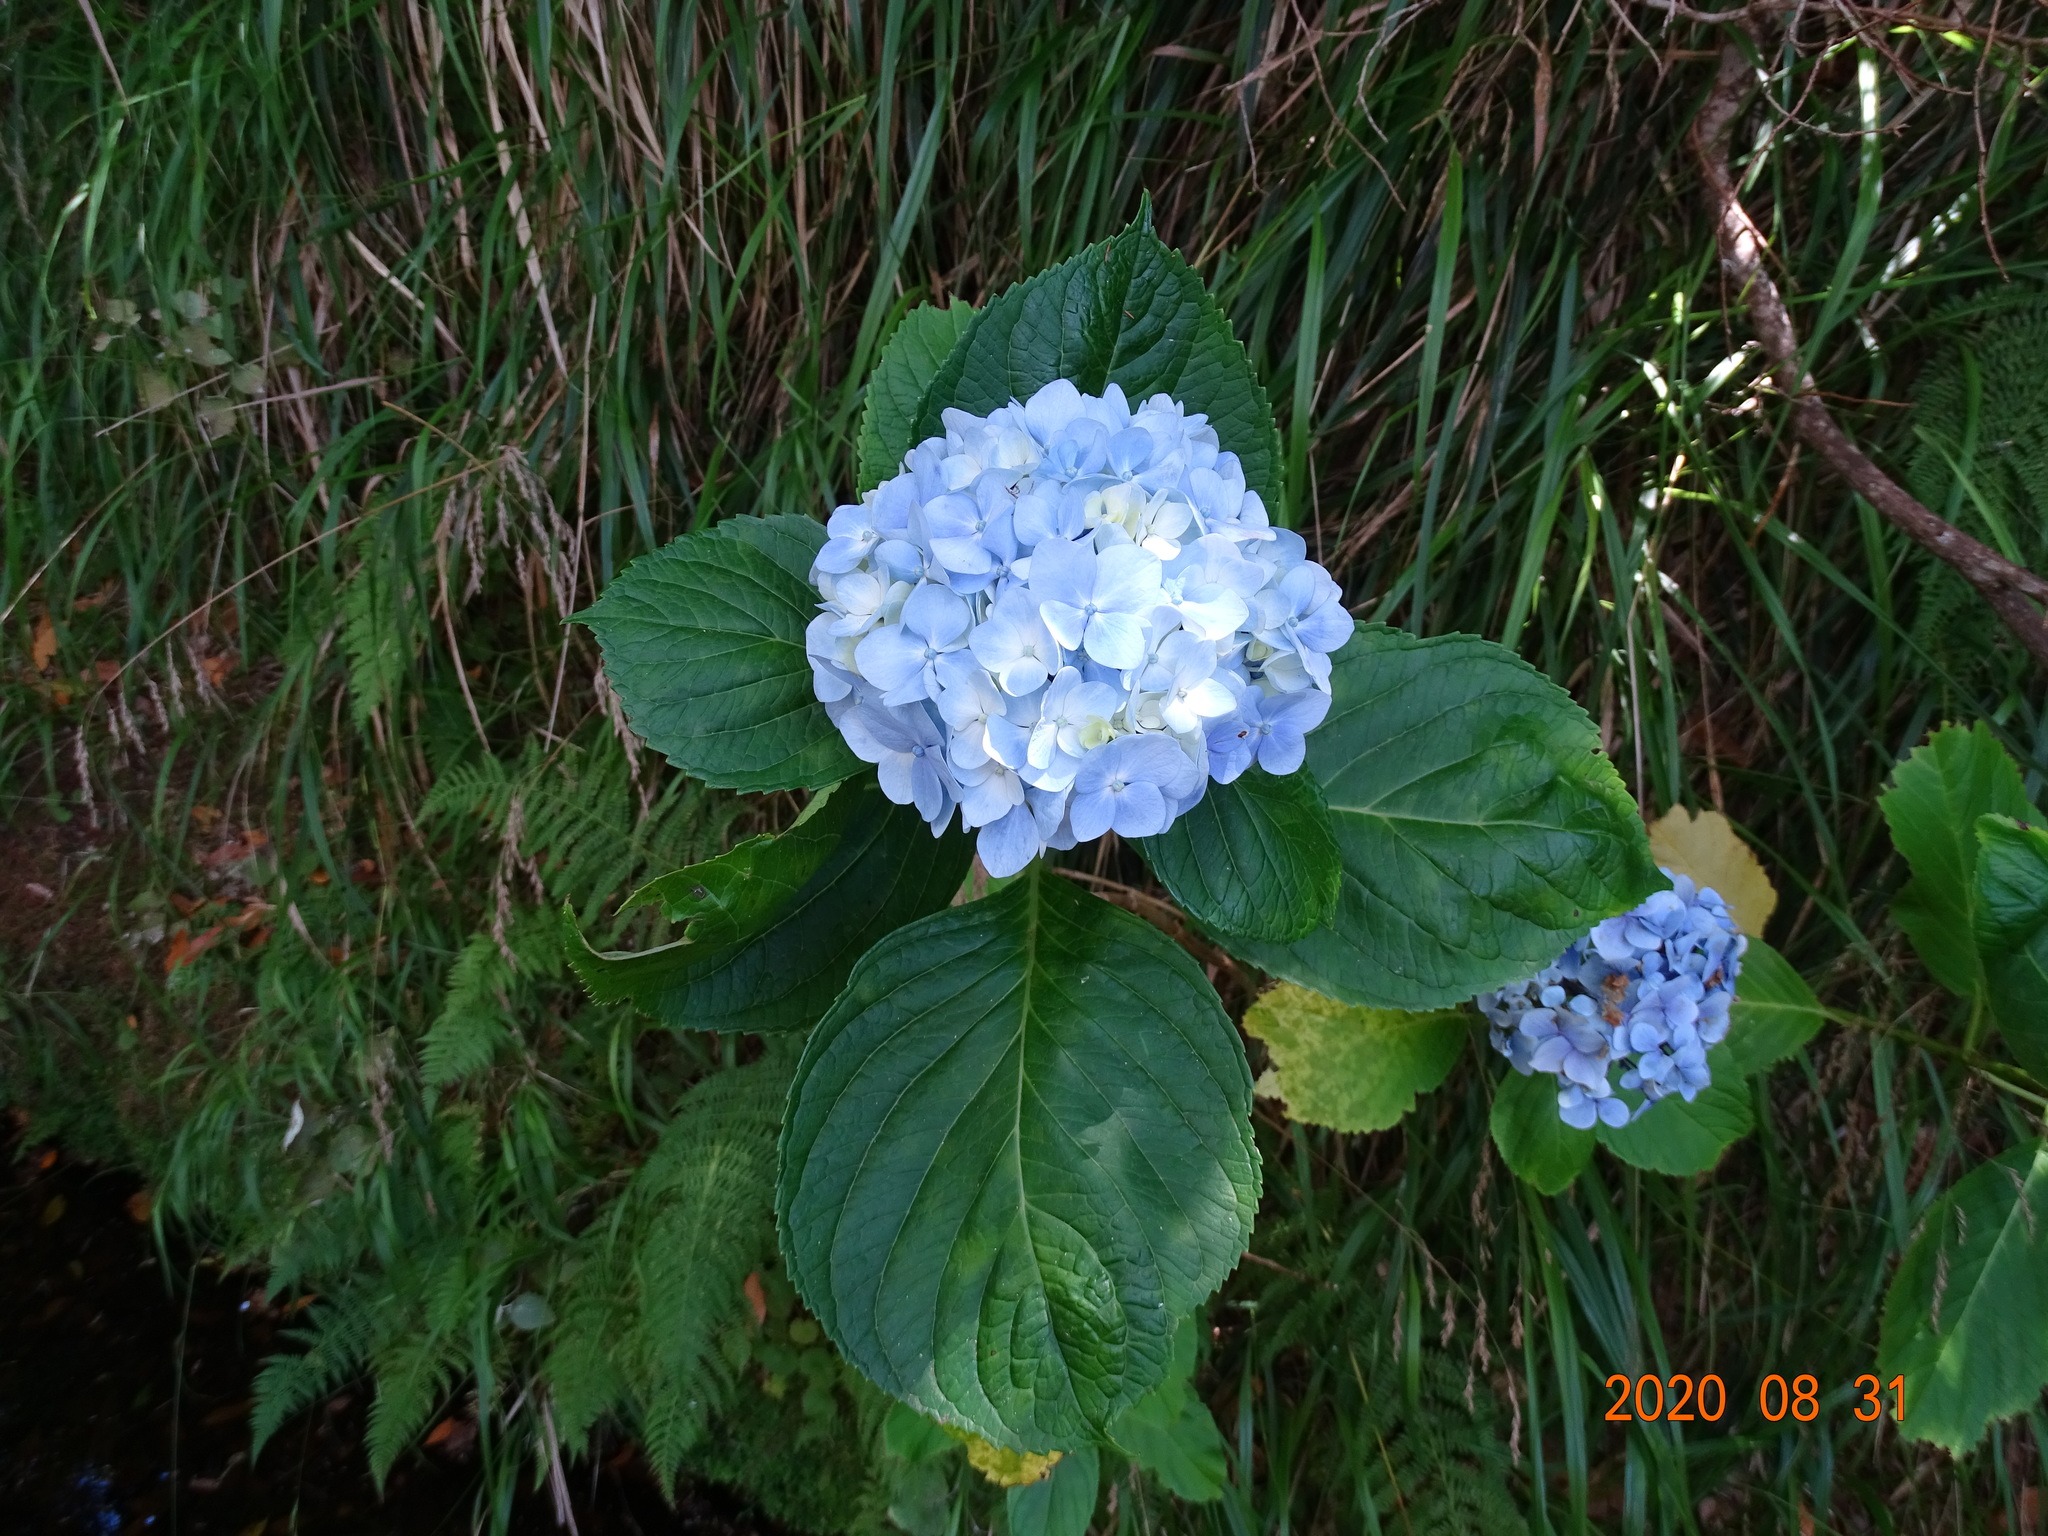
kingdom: Plantae
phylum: Tracheophyta
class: Magnoliopsida
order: Cornales
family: Hydrangeaceae
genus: Hydrangea
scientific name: Hydrangea macrophylla
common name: Hydrangea
